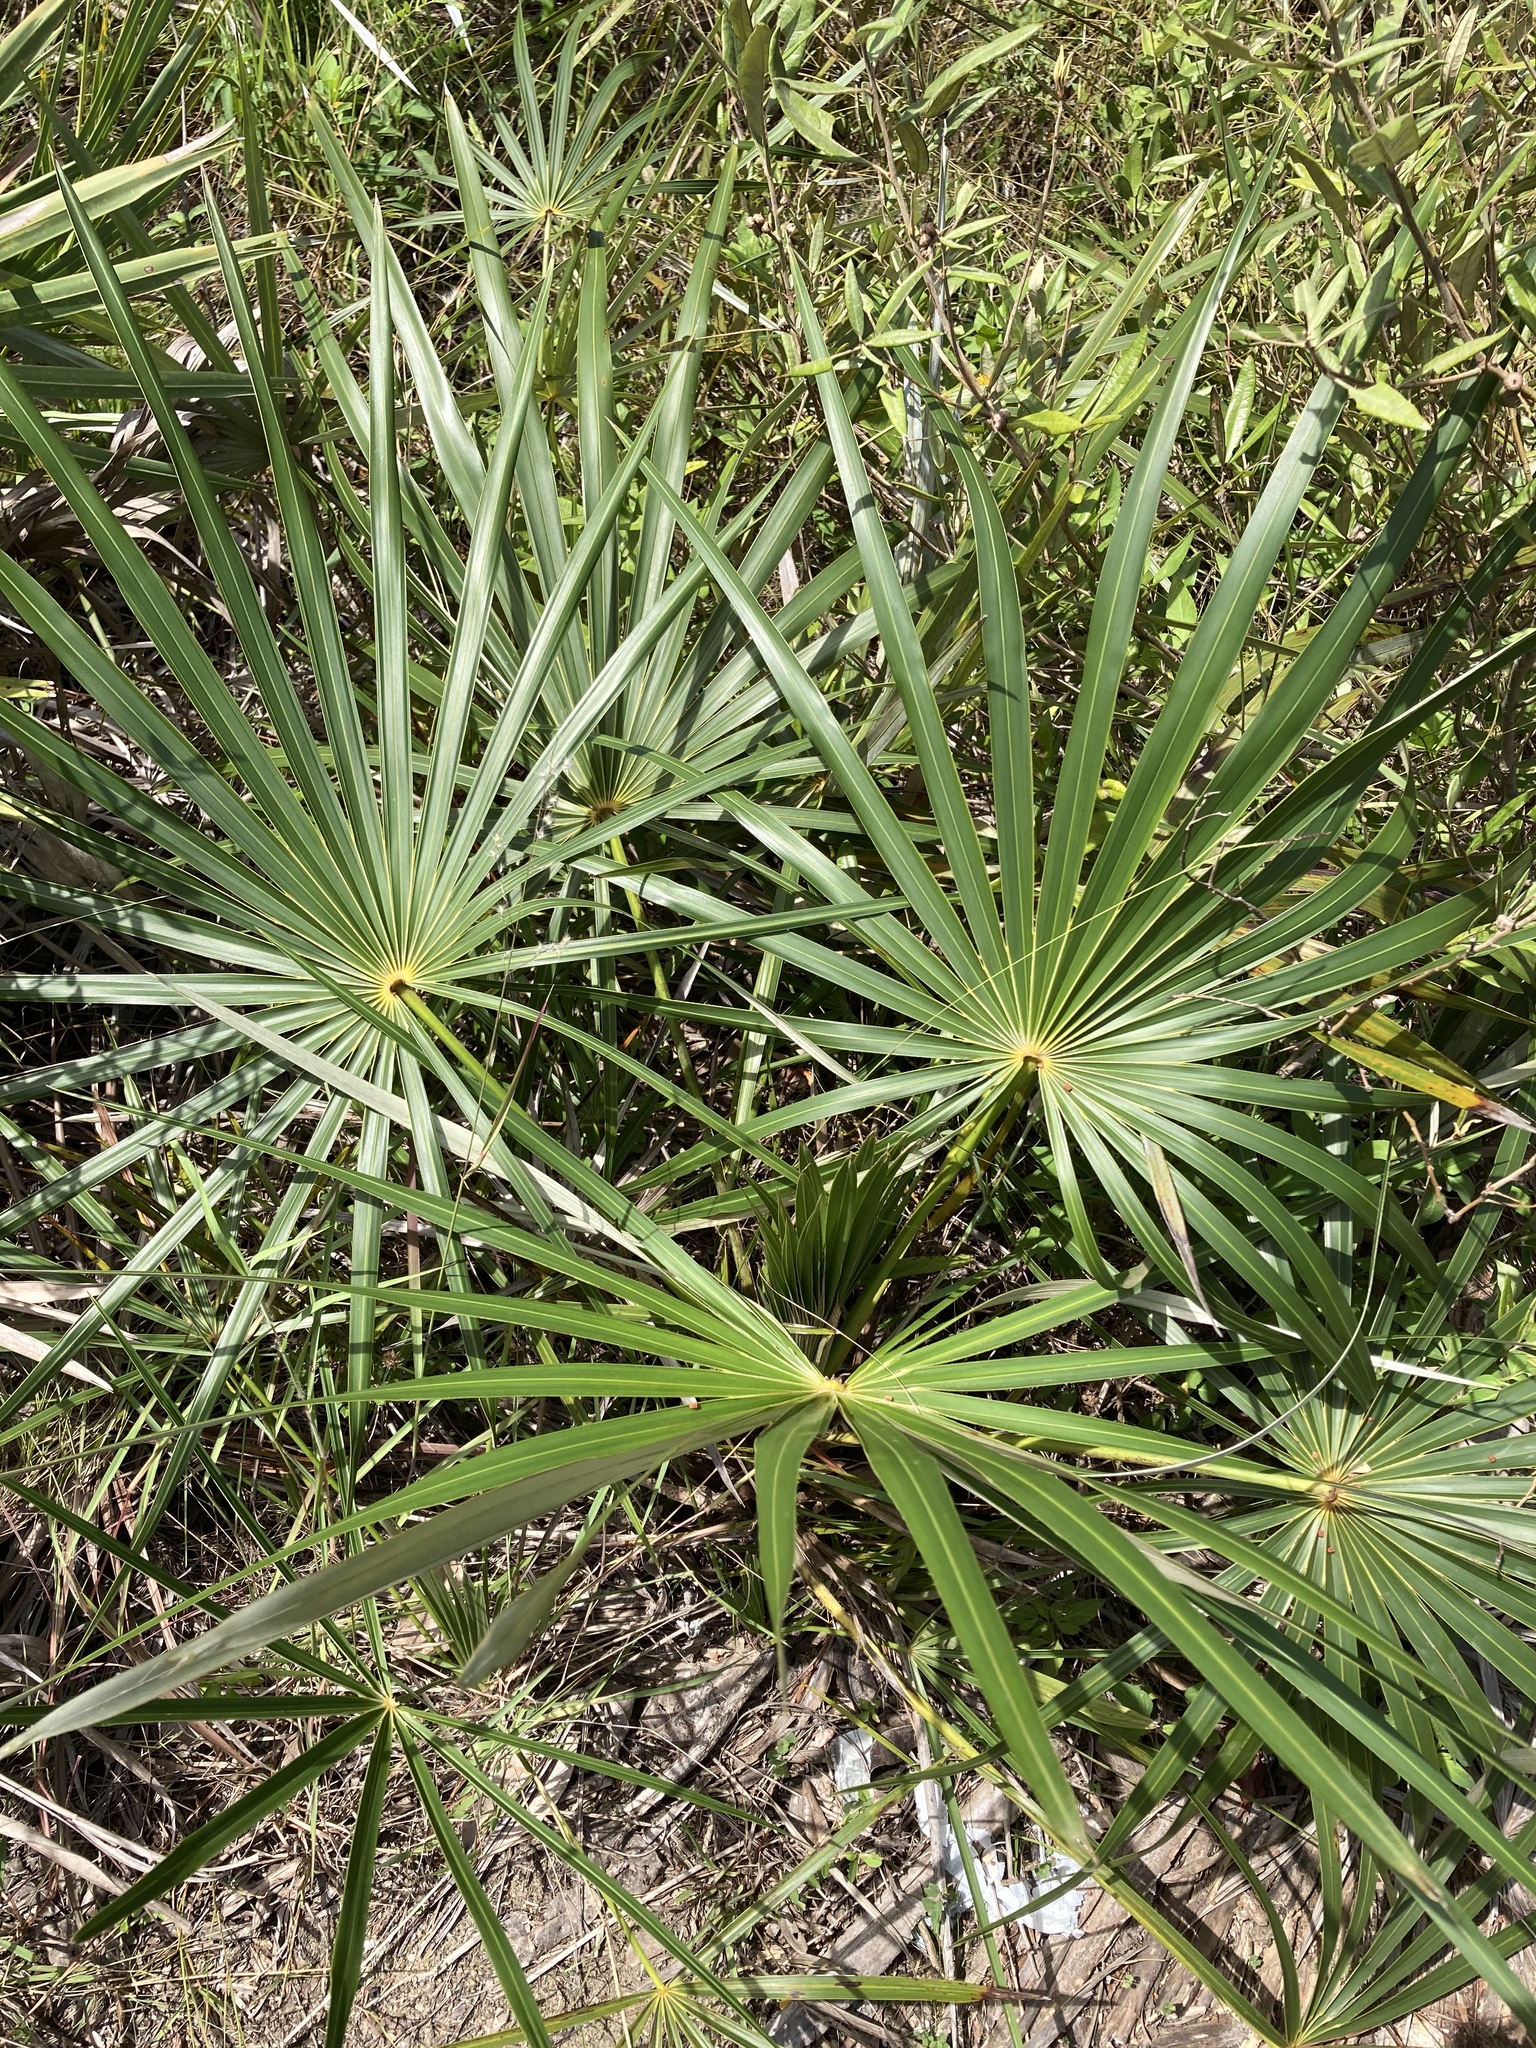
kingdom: Plantae
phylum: Tracheophyta
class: Liliopsida
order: Arecales
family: Arecaceae
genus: Coccothrinax
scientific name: Coccothrinax argentata
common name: Florida silver palm
